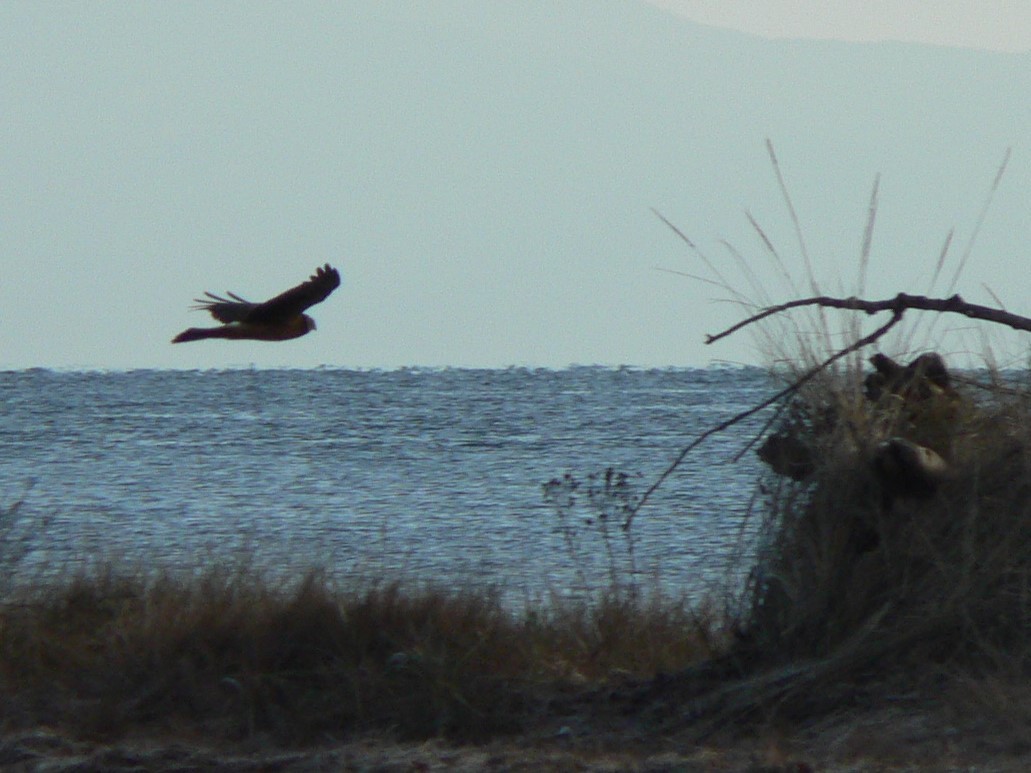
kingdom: Animalia
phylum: Chordata
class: Aves
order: Accipitriformes
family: Accipitridae
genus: Circus
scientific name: Circus cyaneus
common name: Hen harrier
